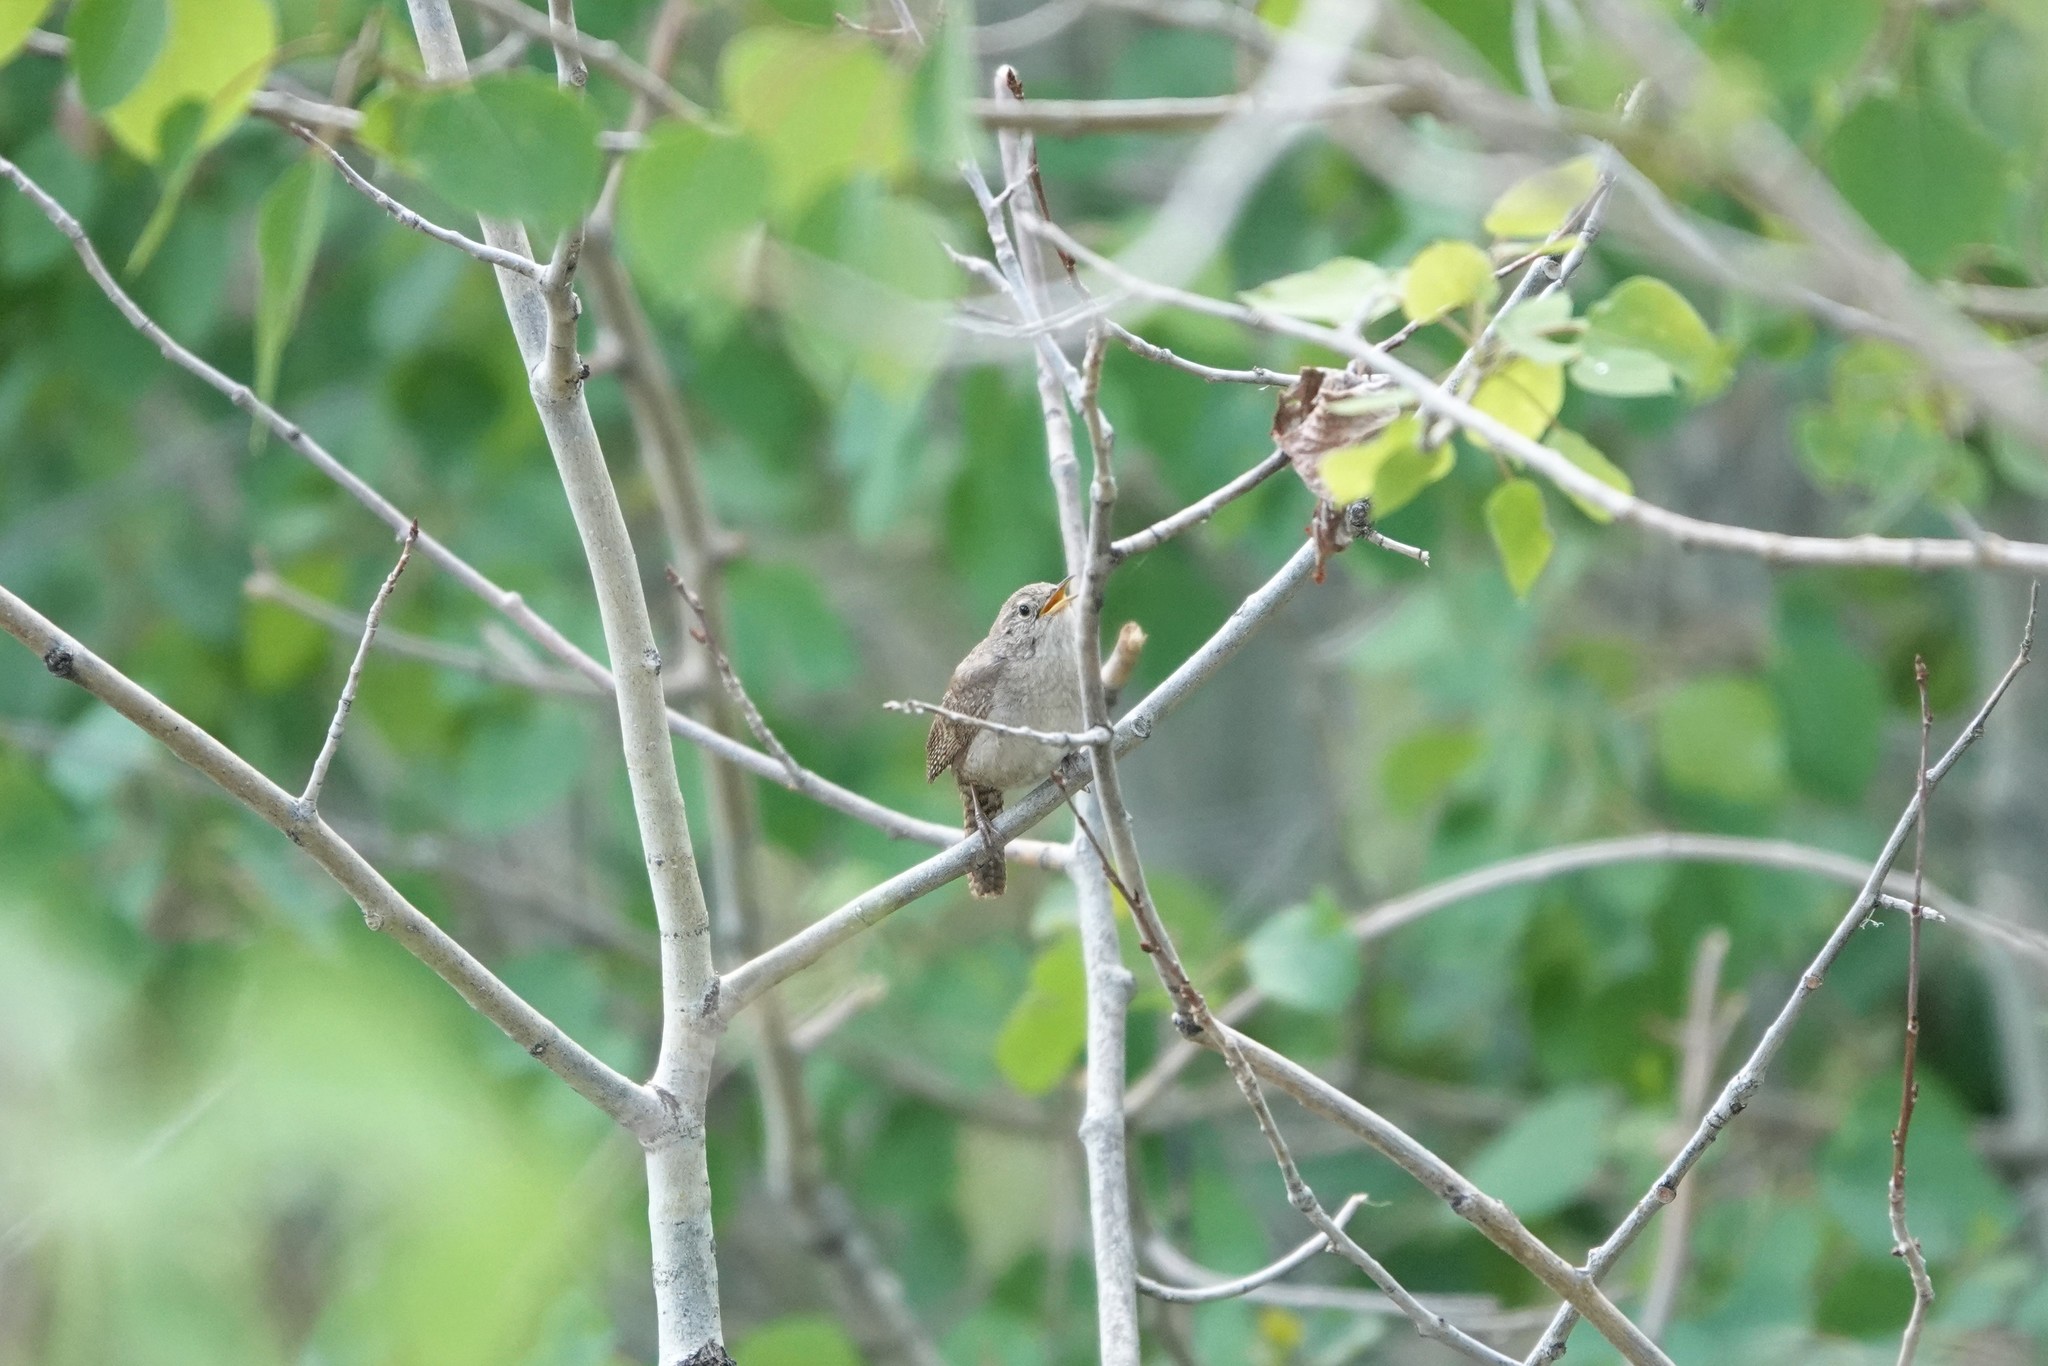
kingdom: Animalia
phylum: Chordata
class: Aves
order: Passeriformes
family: Troglodytidae
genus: Troglodytes
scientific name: Troglodytes aedon
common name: House wren
